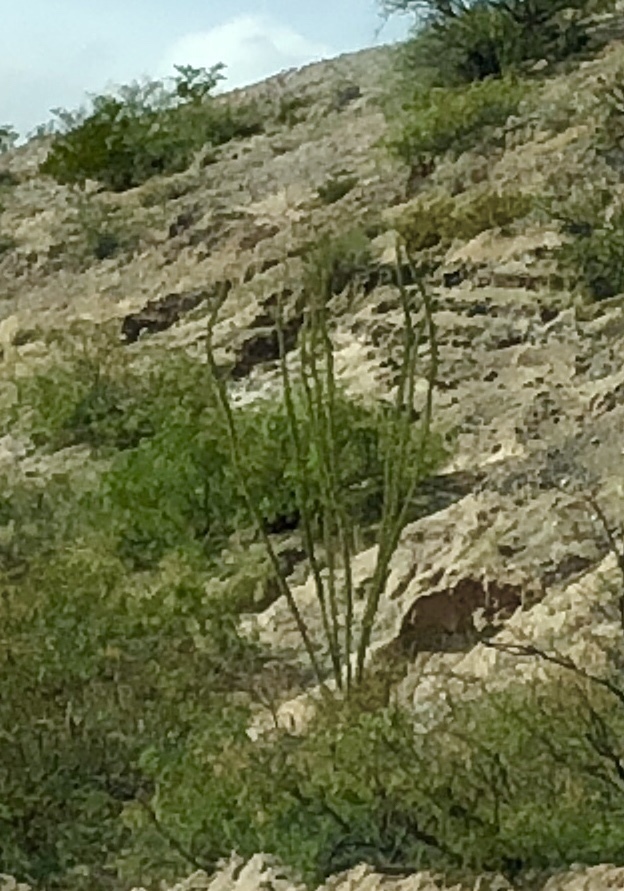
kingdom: Plantae
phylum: Tracheophyta
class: Magnoliopsida
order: Ericales
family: Fouquieriaceae
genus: Fouquieria
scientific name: Fouquieria splendens
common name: Vine-cactus
